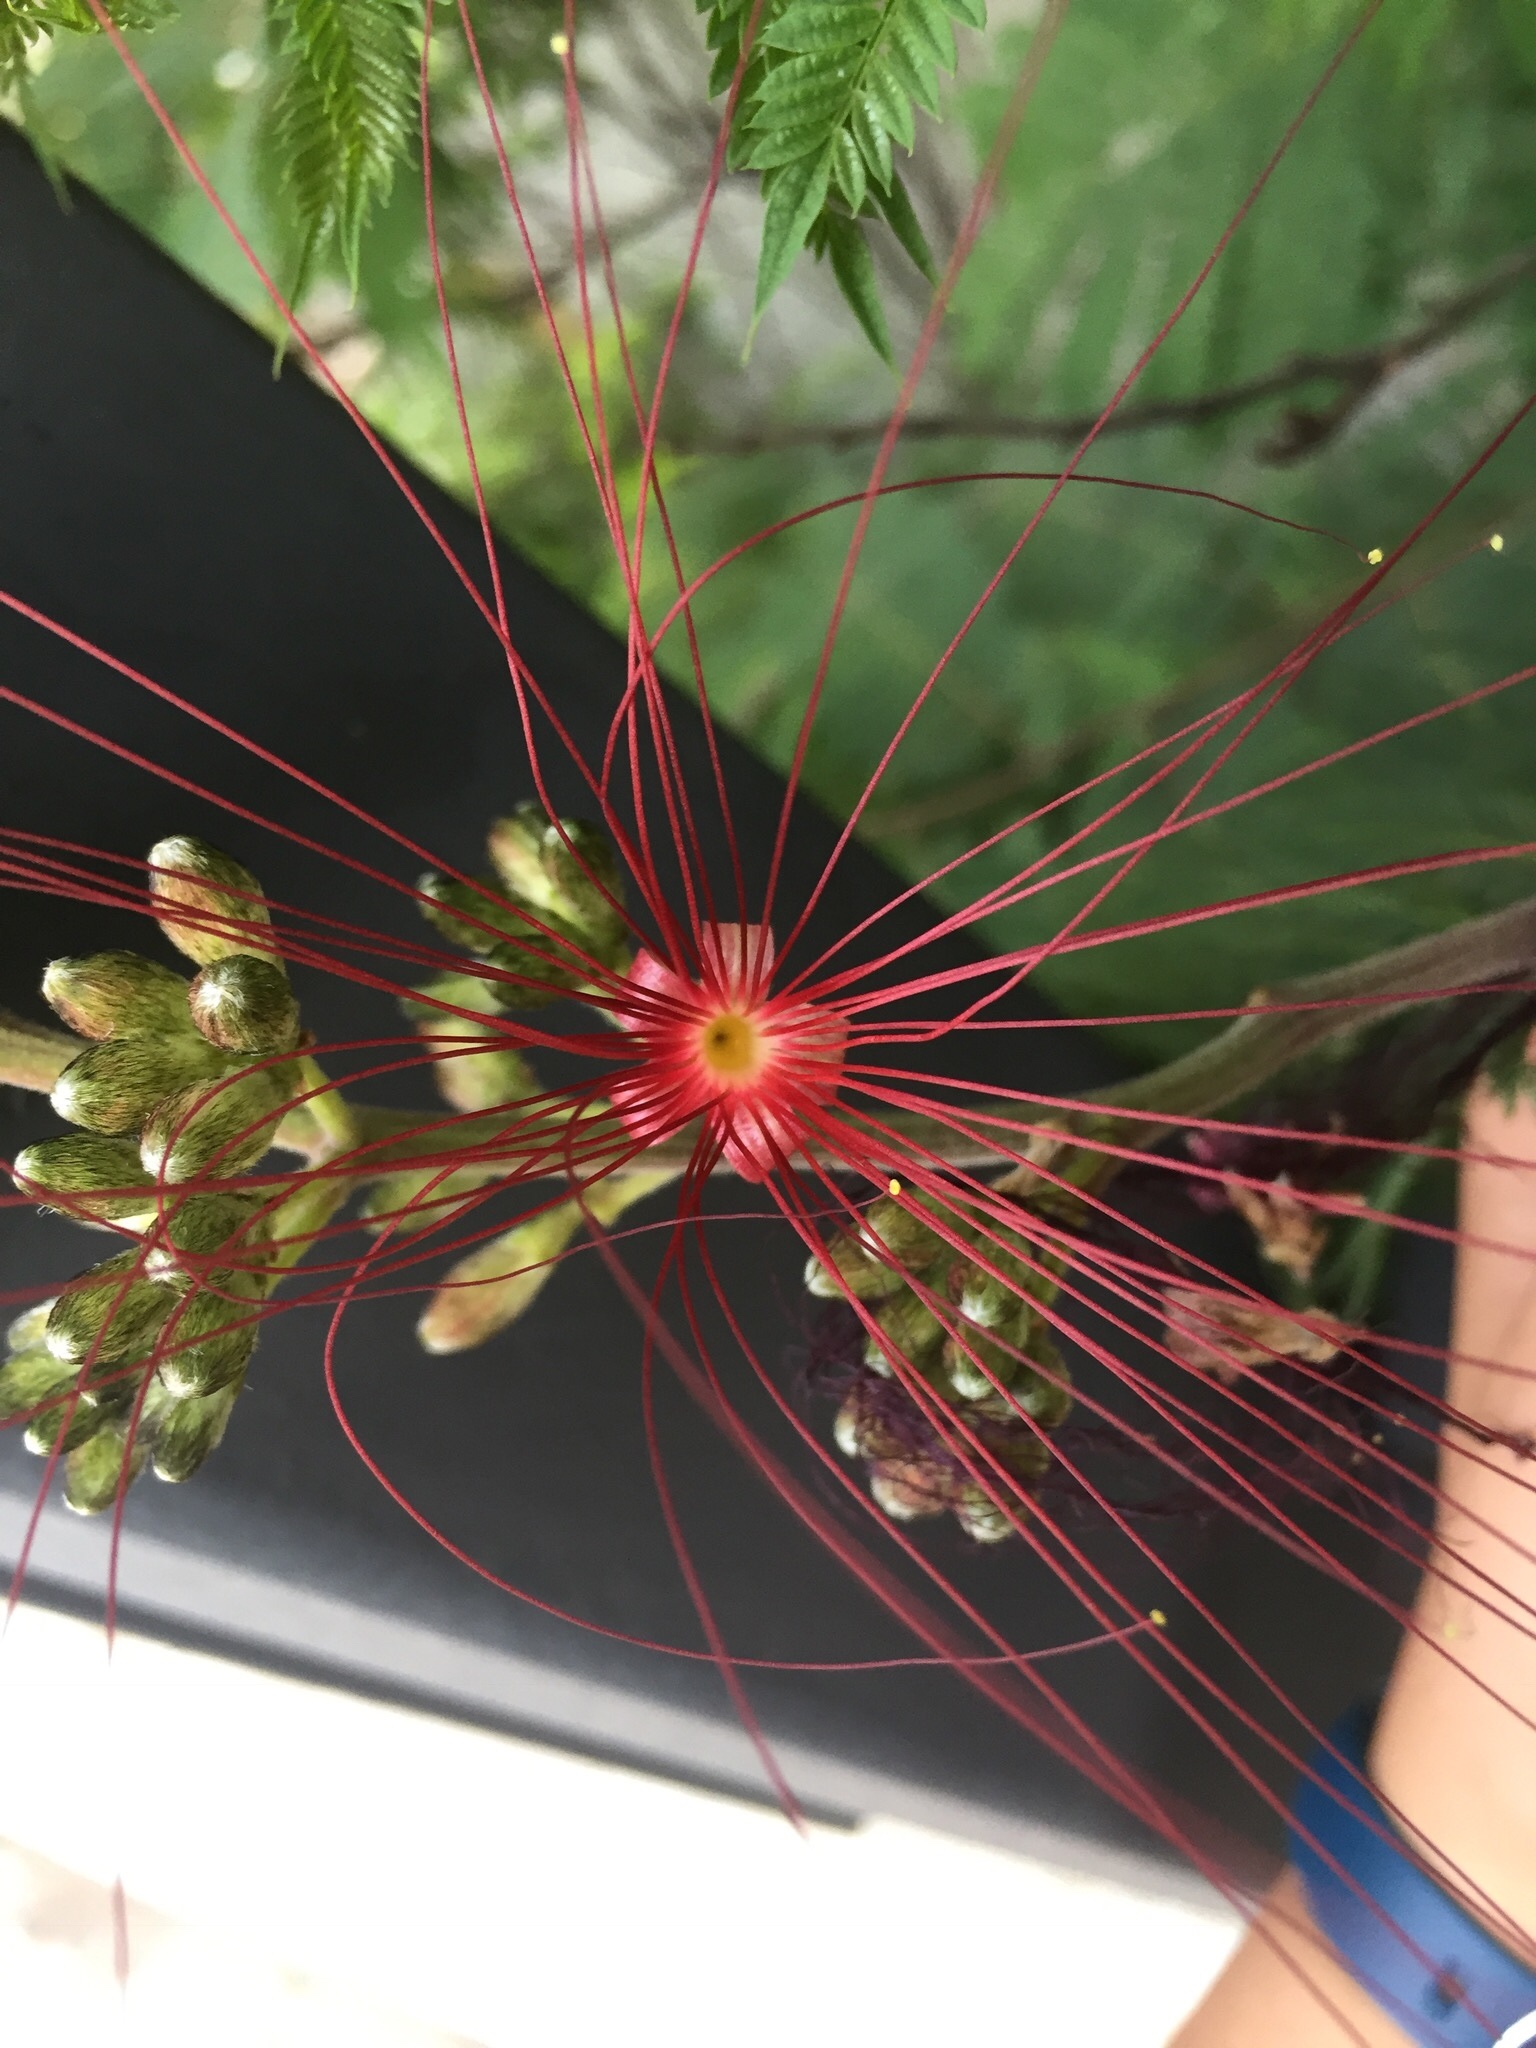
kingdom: Plantae
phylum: Tracheophyta
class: Magnoliopsida
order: Fabales
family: Fabaceae
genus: Calliandra
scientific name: Calliandra houstoniana
